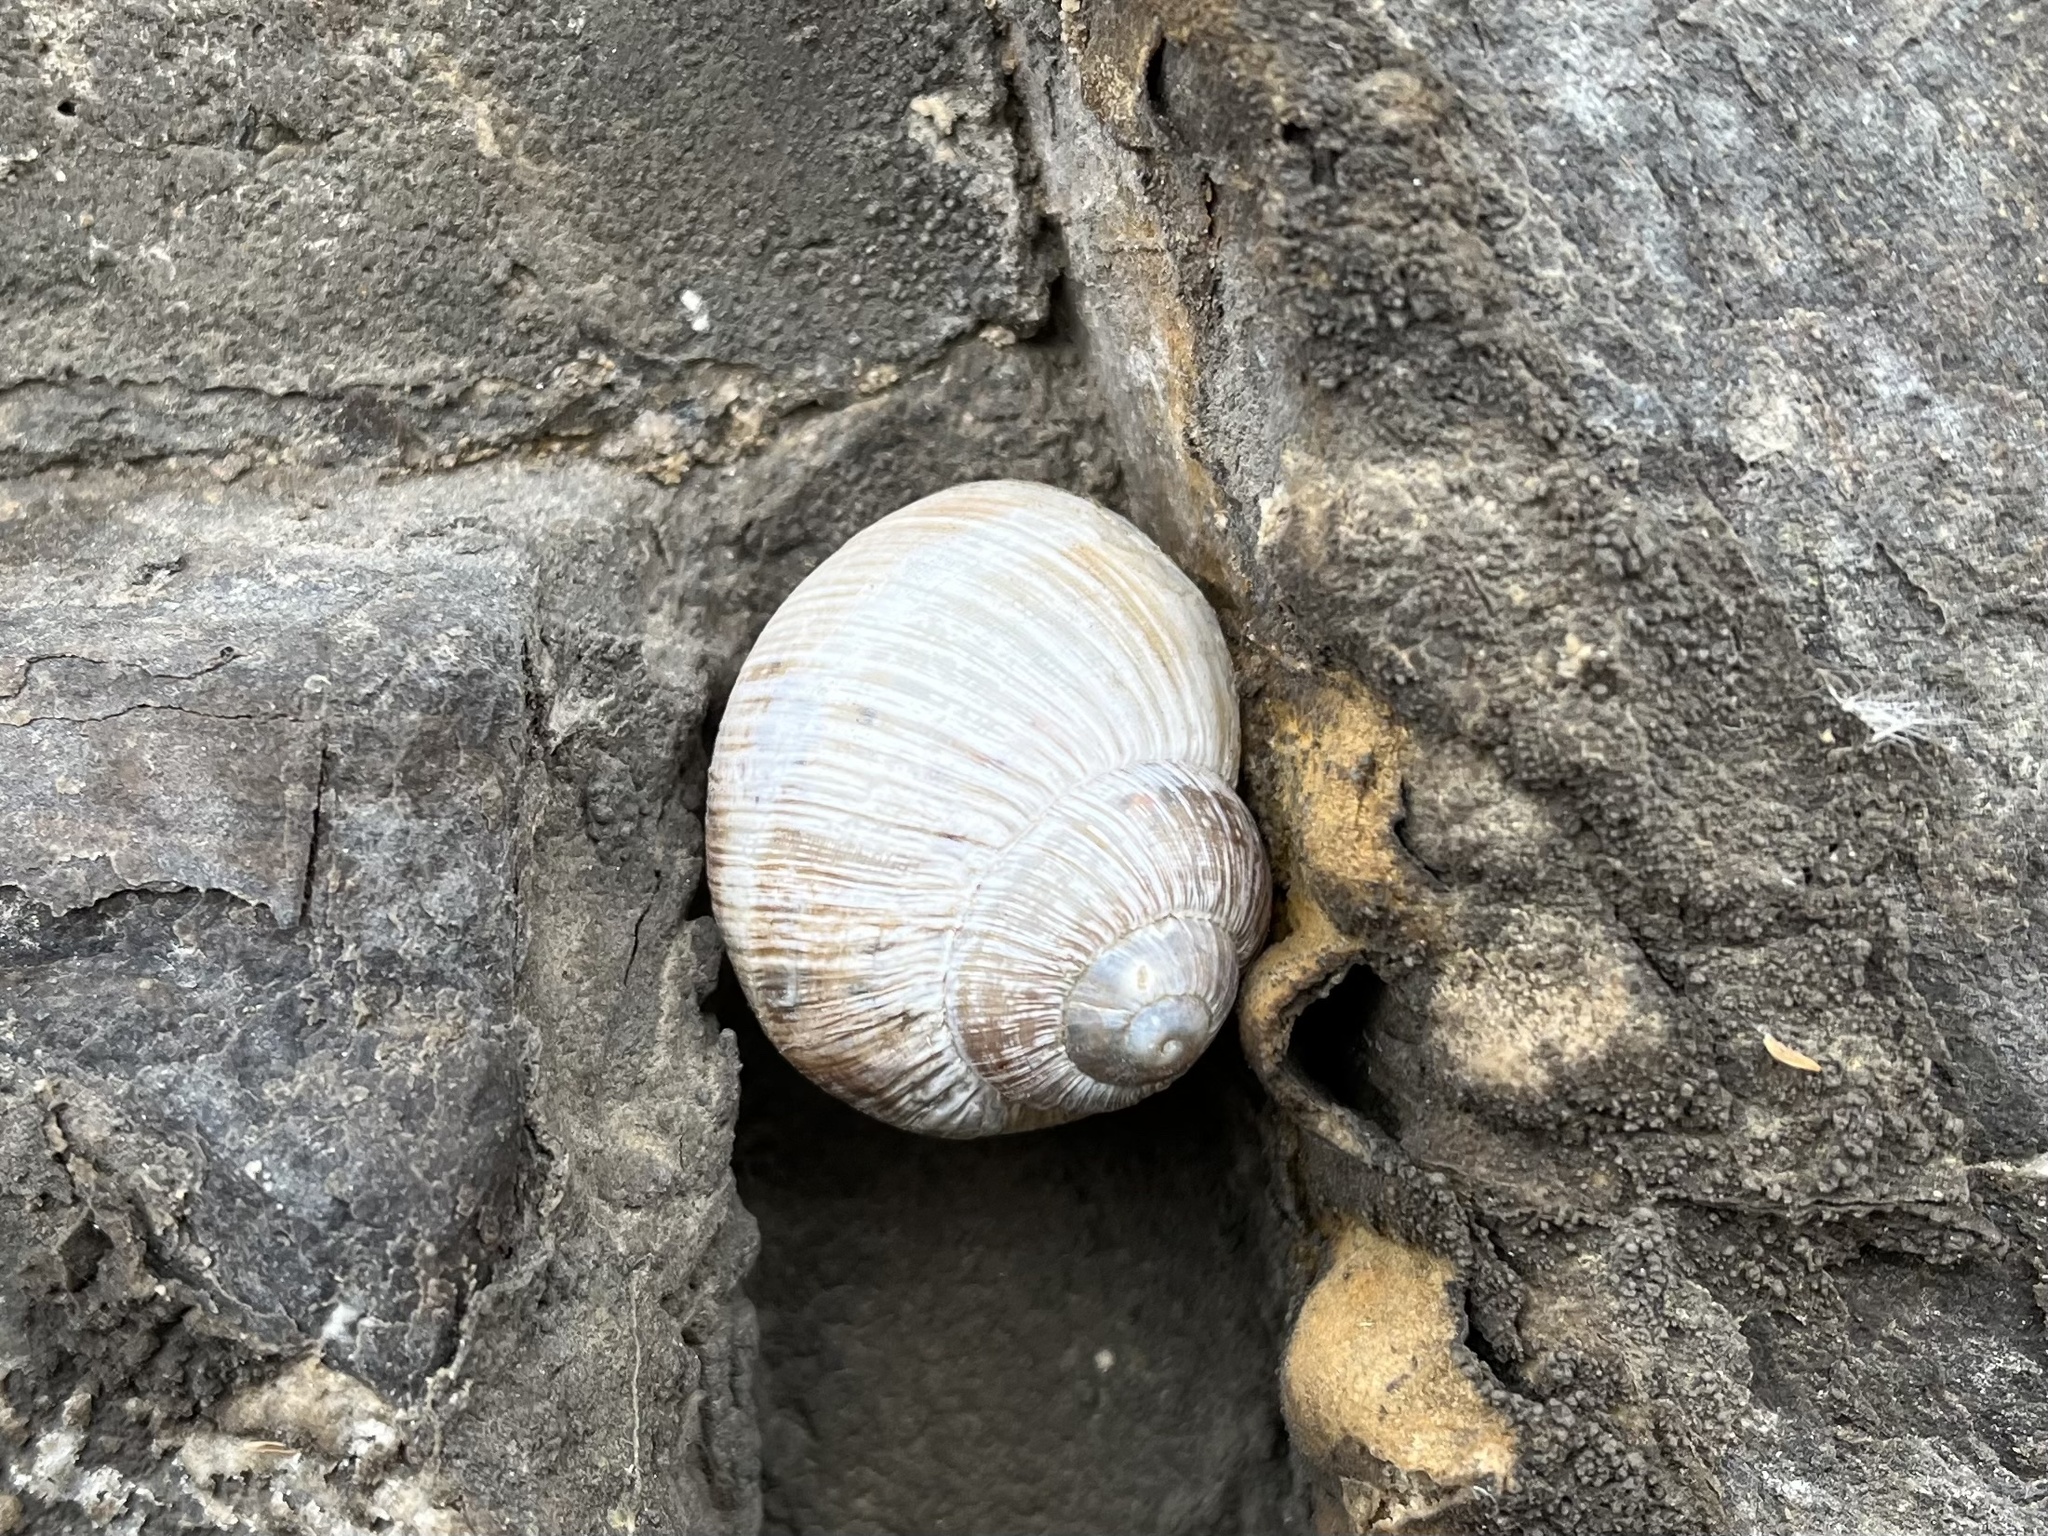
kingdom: Animalia
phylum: Mollusca
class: Gastropoda
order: Stylommatophora
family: Helicidae
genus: Helix
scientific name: Helix pomatia
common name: Roman snail
